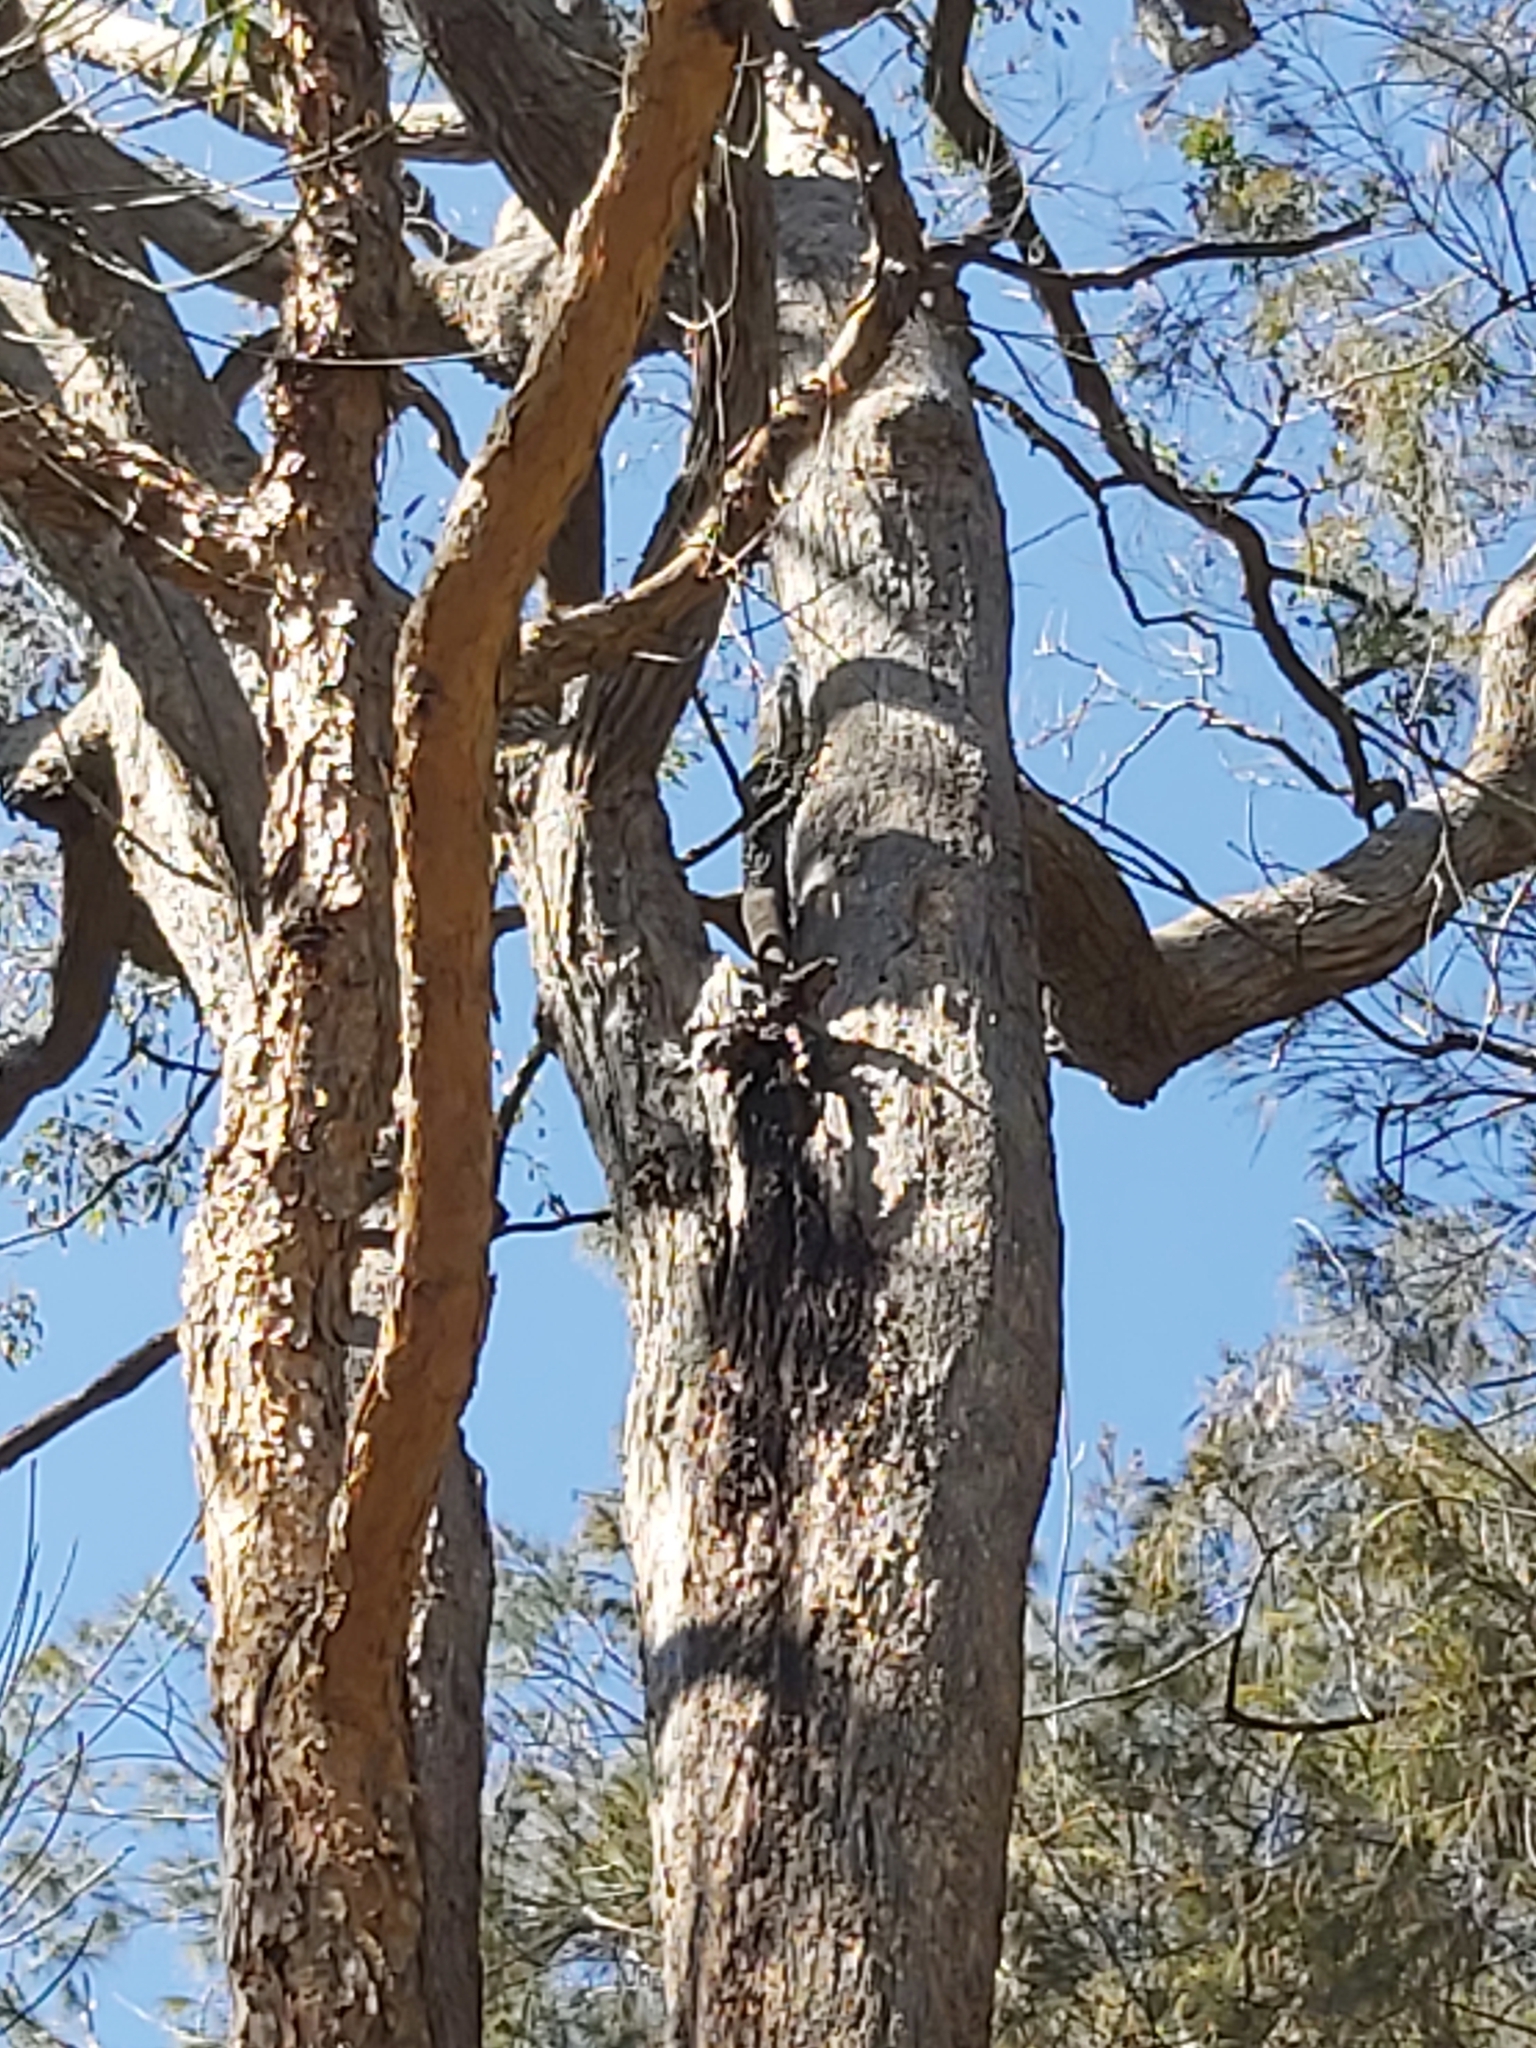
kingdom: Animalia
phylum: Chordata
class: Squamata
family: Varanidae
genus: Varanus
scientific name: Varanus varius
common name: Lace monitor
